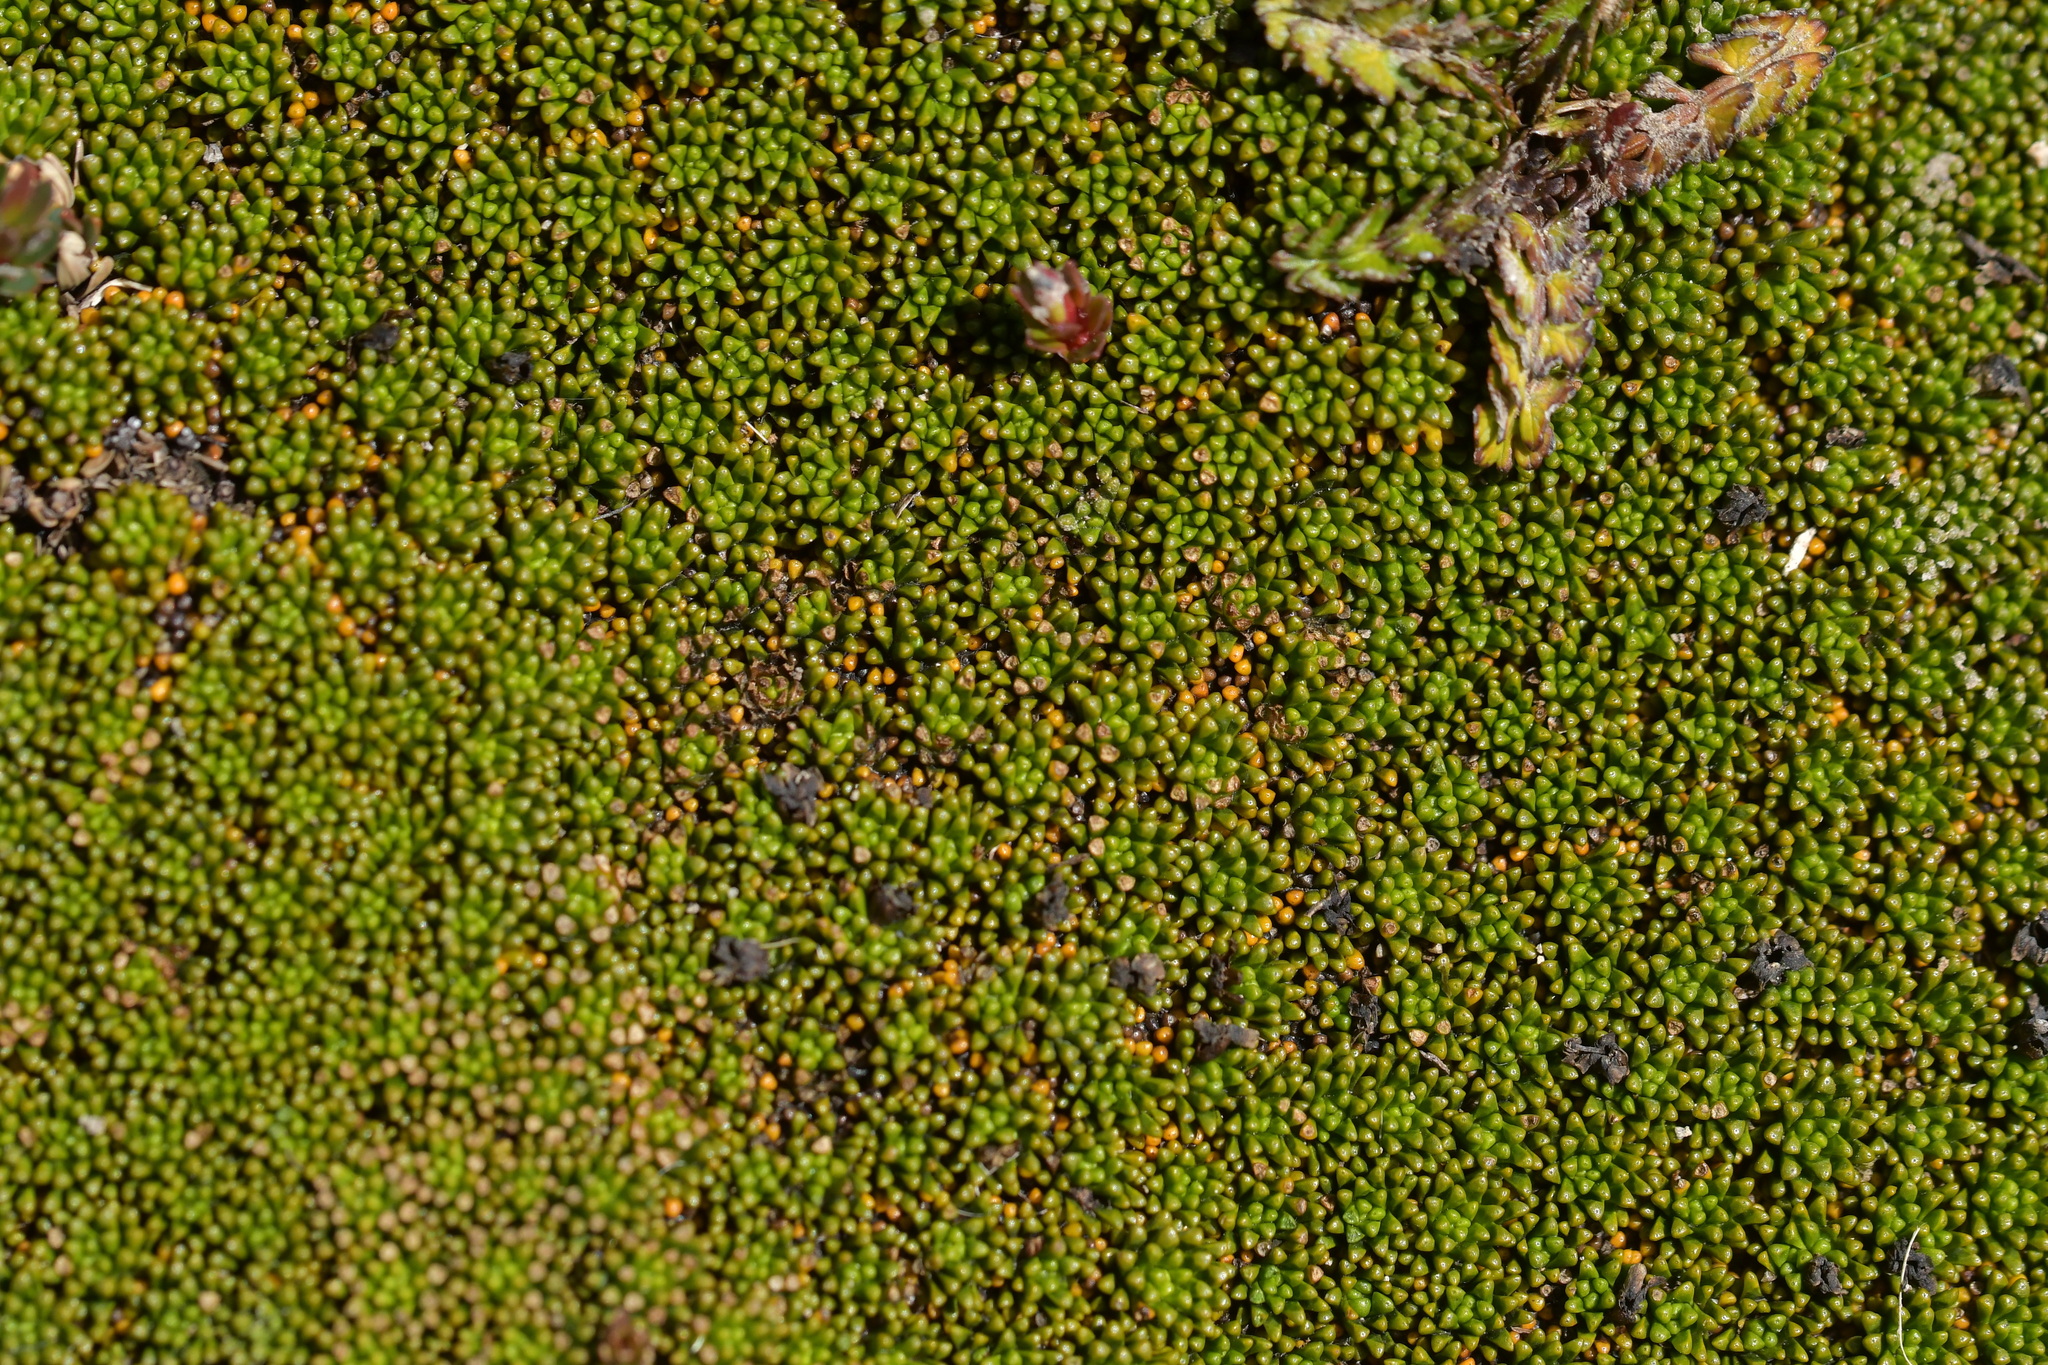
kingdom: Plantae
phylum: Tracheophyta
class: Magnoliopsida
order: Asterales
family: Stylidiaceae
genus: Phyllachne
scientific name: Phyllachne colensoi
